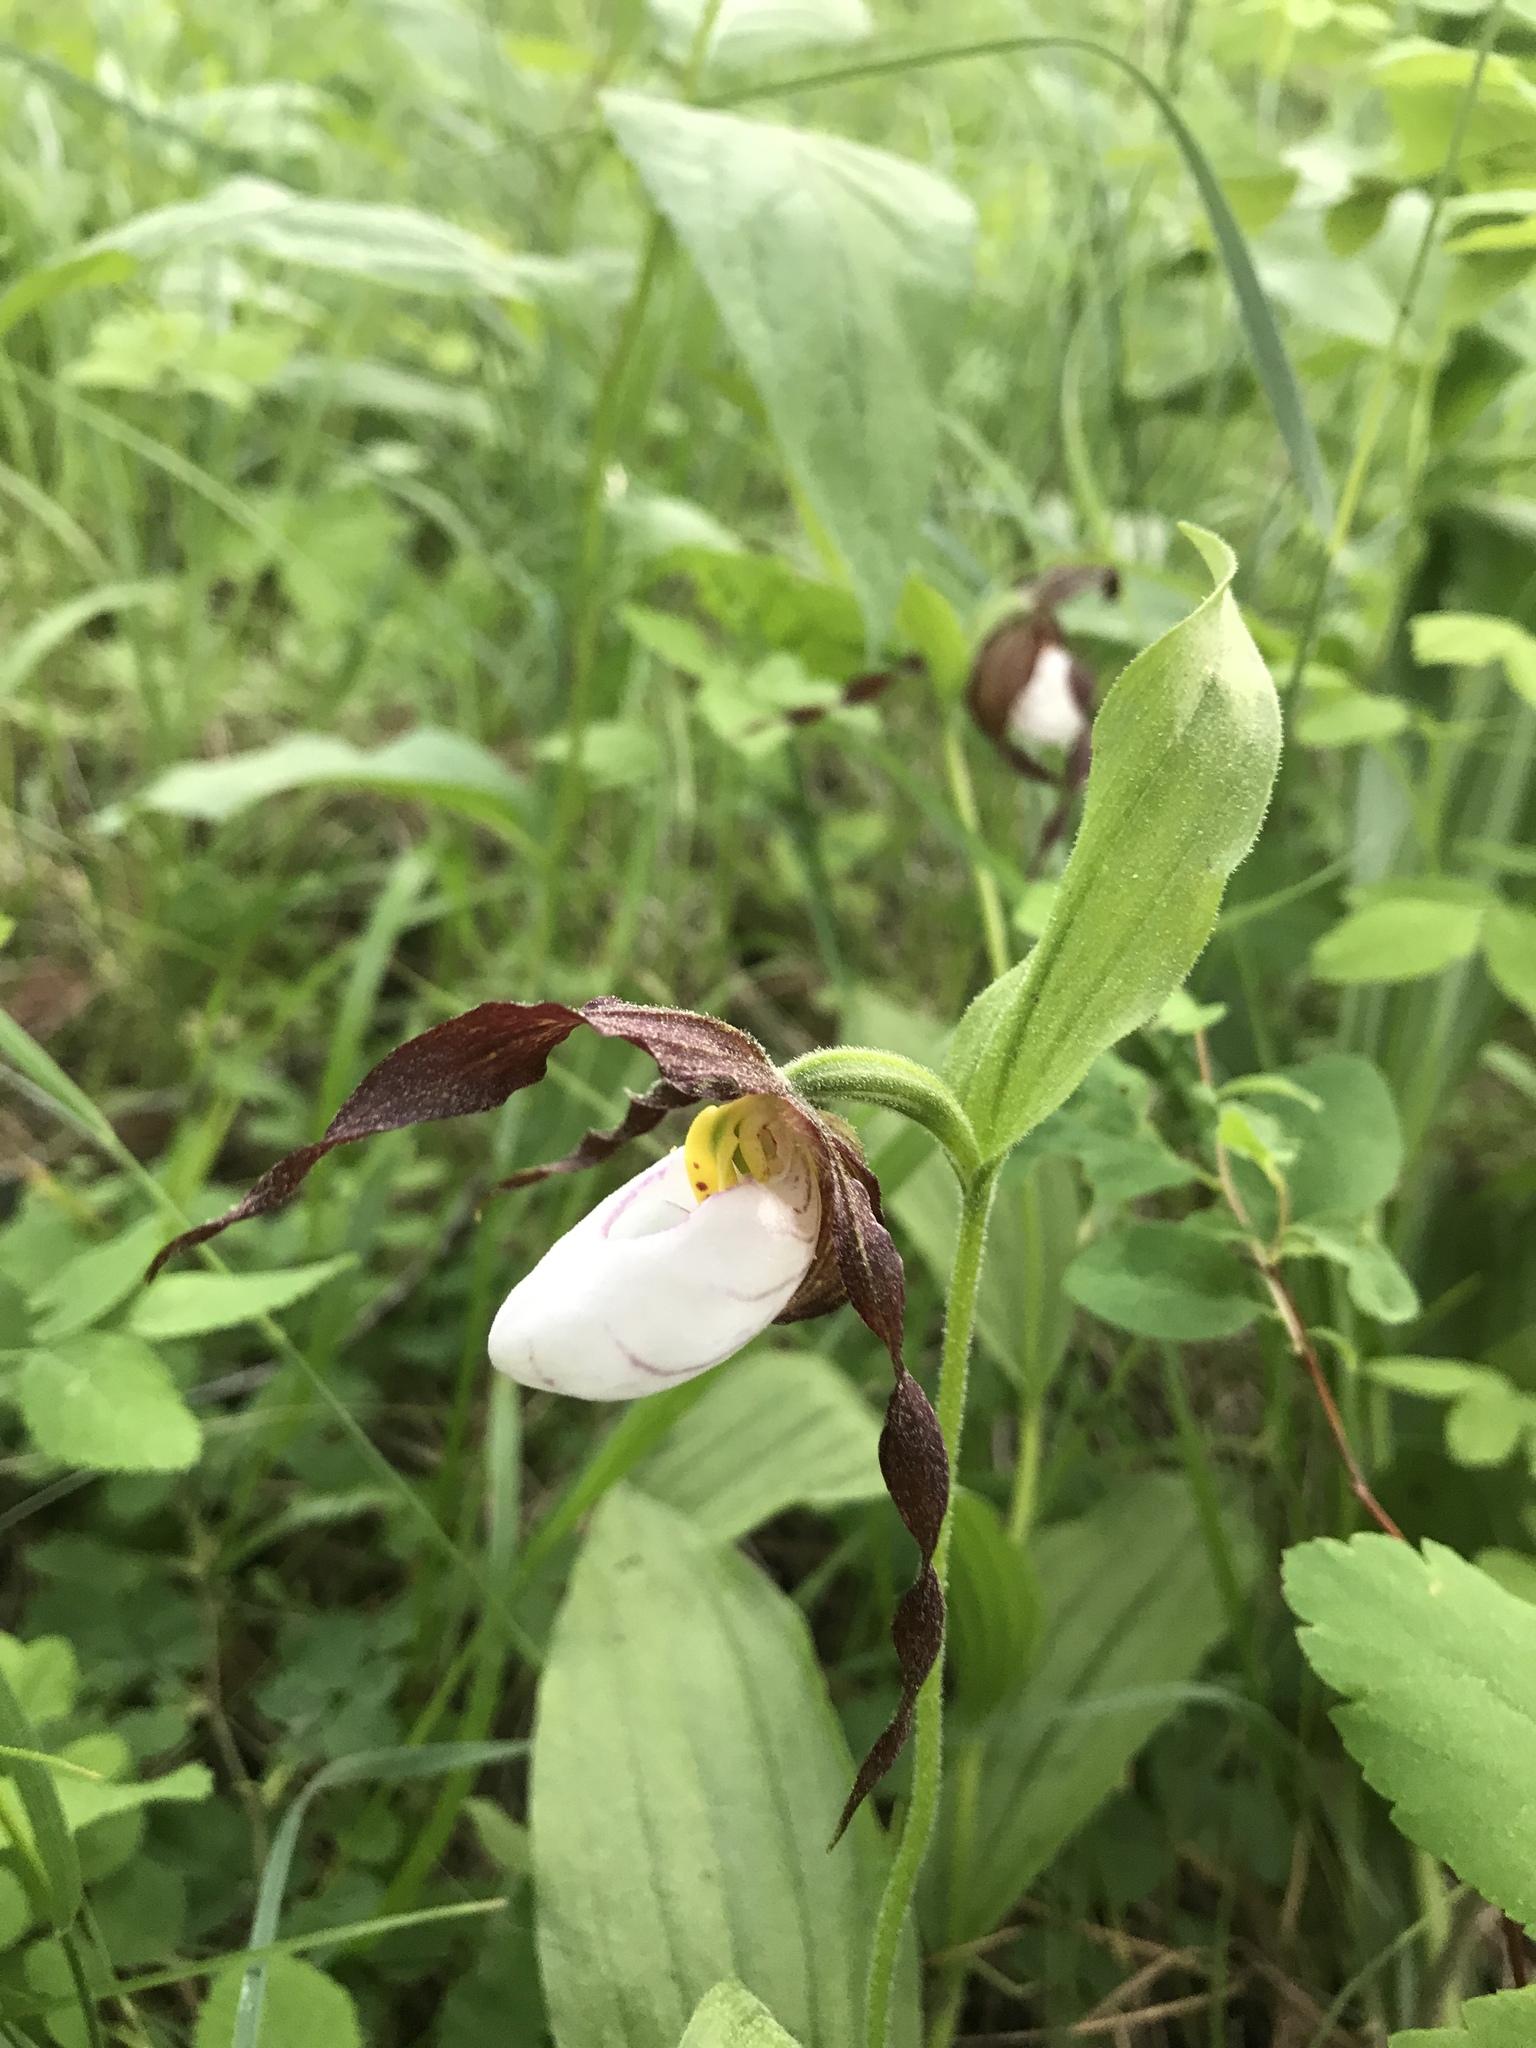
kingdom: Plantae
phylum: Tracheophyta
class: Liliopsida
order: Asparagales
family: Orchidaceae
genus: Cypripedium
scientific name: Cypripedium montanum
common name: Mountain lady's-slipper
